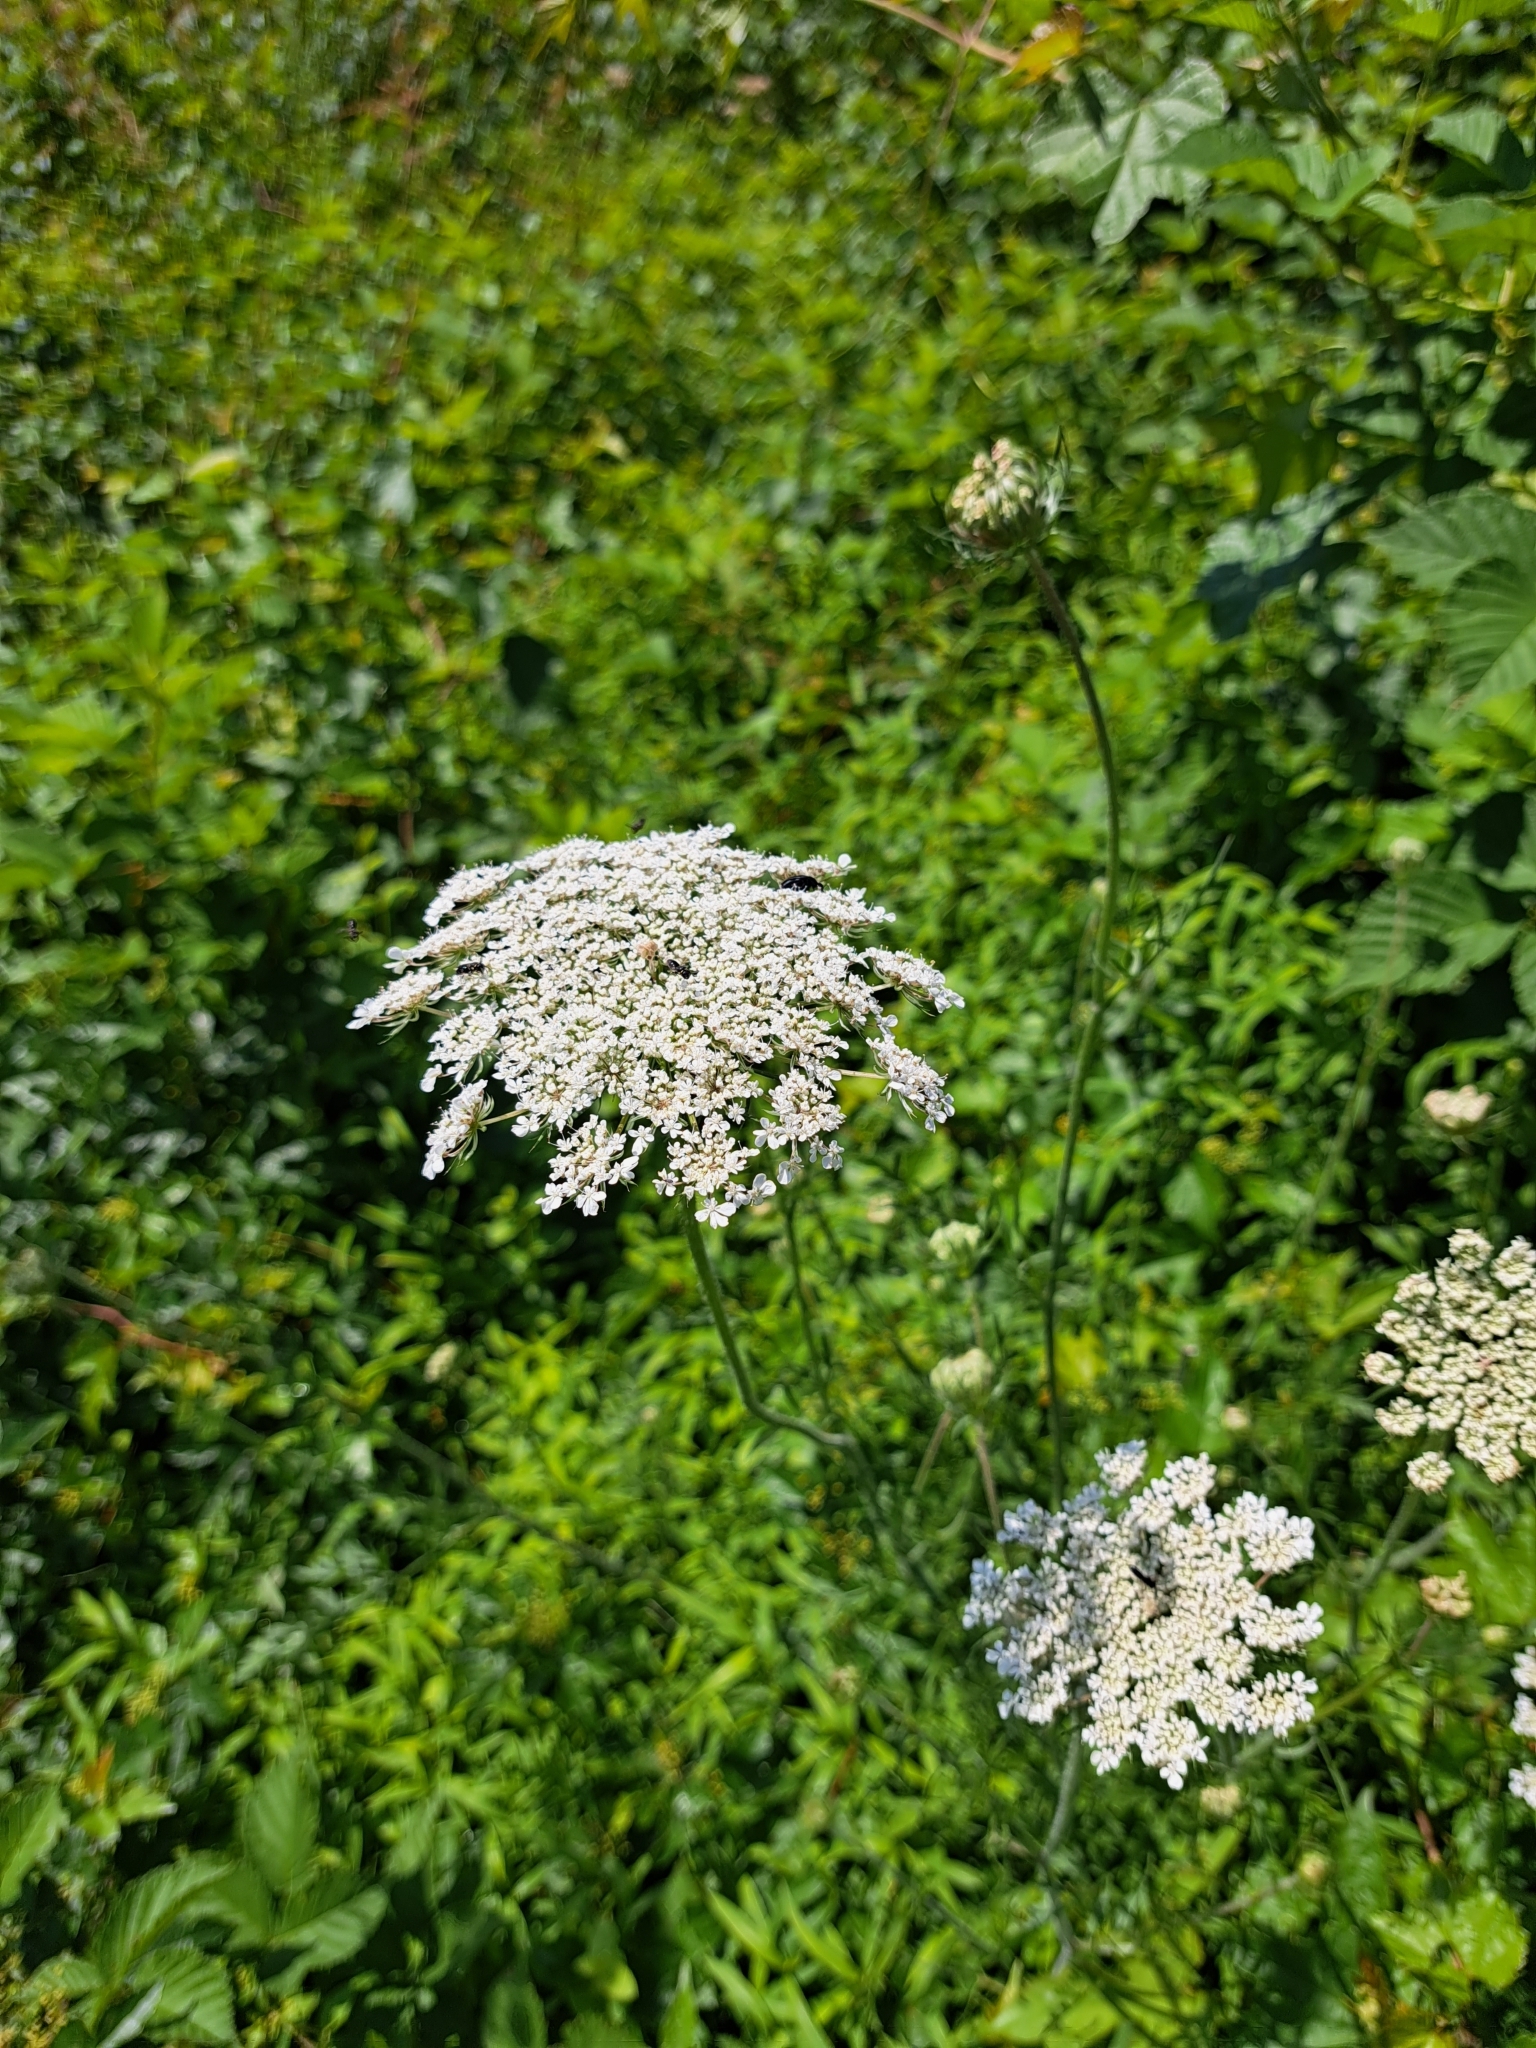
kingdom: Plantae
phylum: Tracheophyta
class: Magnoliopsida
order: Apiales
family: Apiaceae
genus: Daucus
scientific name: Daucus carota
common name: Wild carrot
